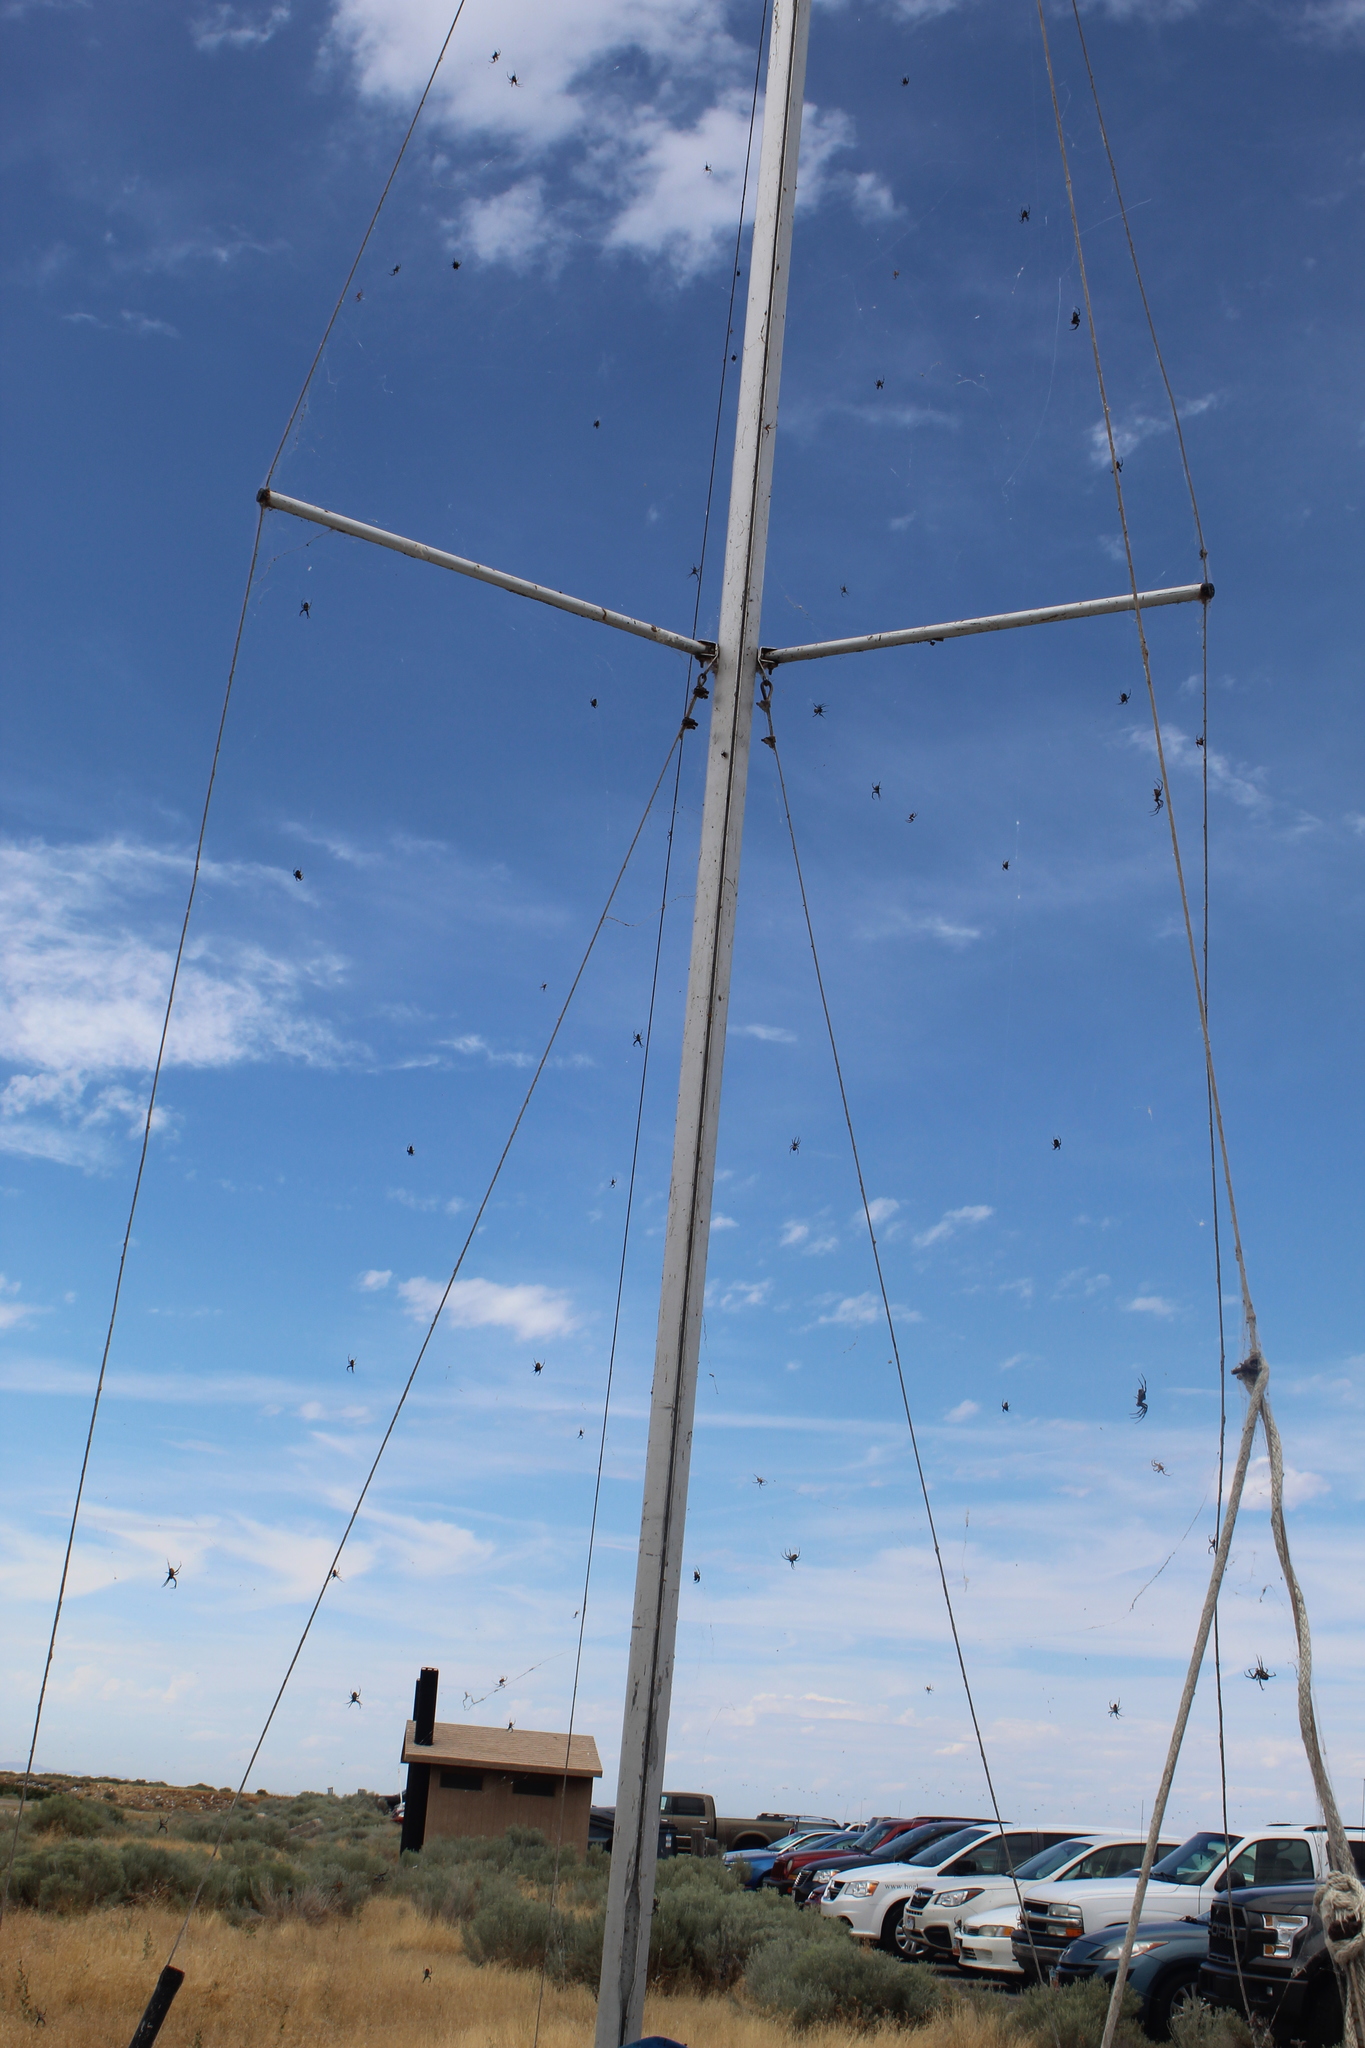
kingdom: Animalia
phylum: Arthropoda
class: Arachnida
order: Araneae
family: Araneidae
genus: Neoscona
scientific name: Neoscona oaxacensis
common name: Orb weavers
